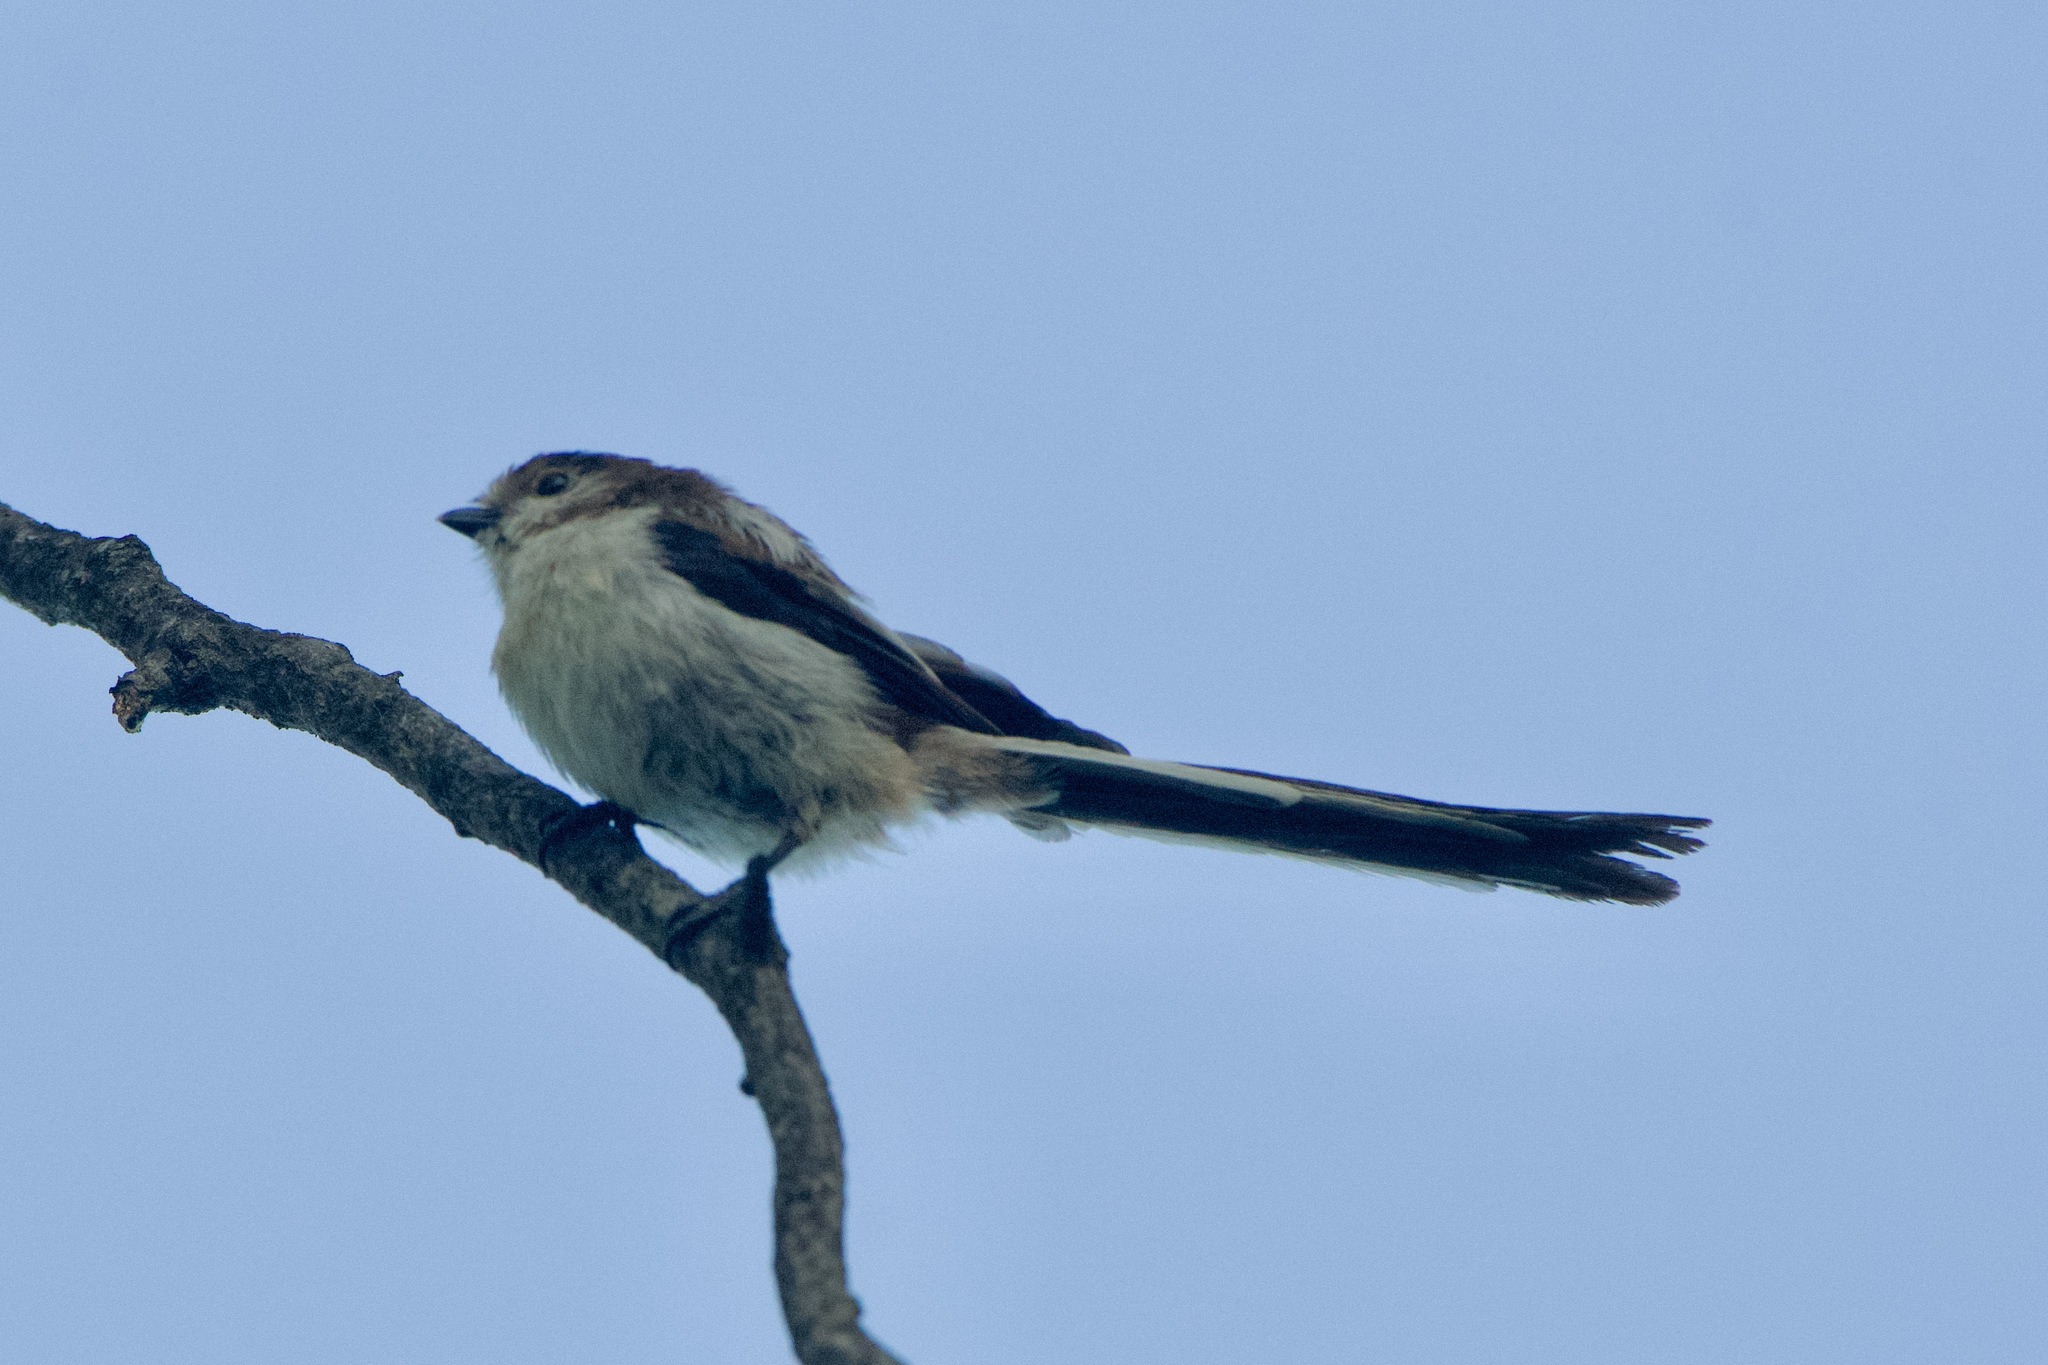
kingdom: Animalia
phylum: Chordata
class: Aves
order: Passeriformes
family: Aegithalidae
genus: Aegithalos
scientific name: Aegithalos caudatus
